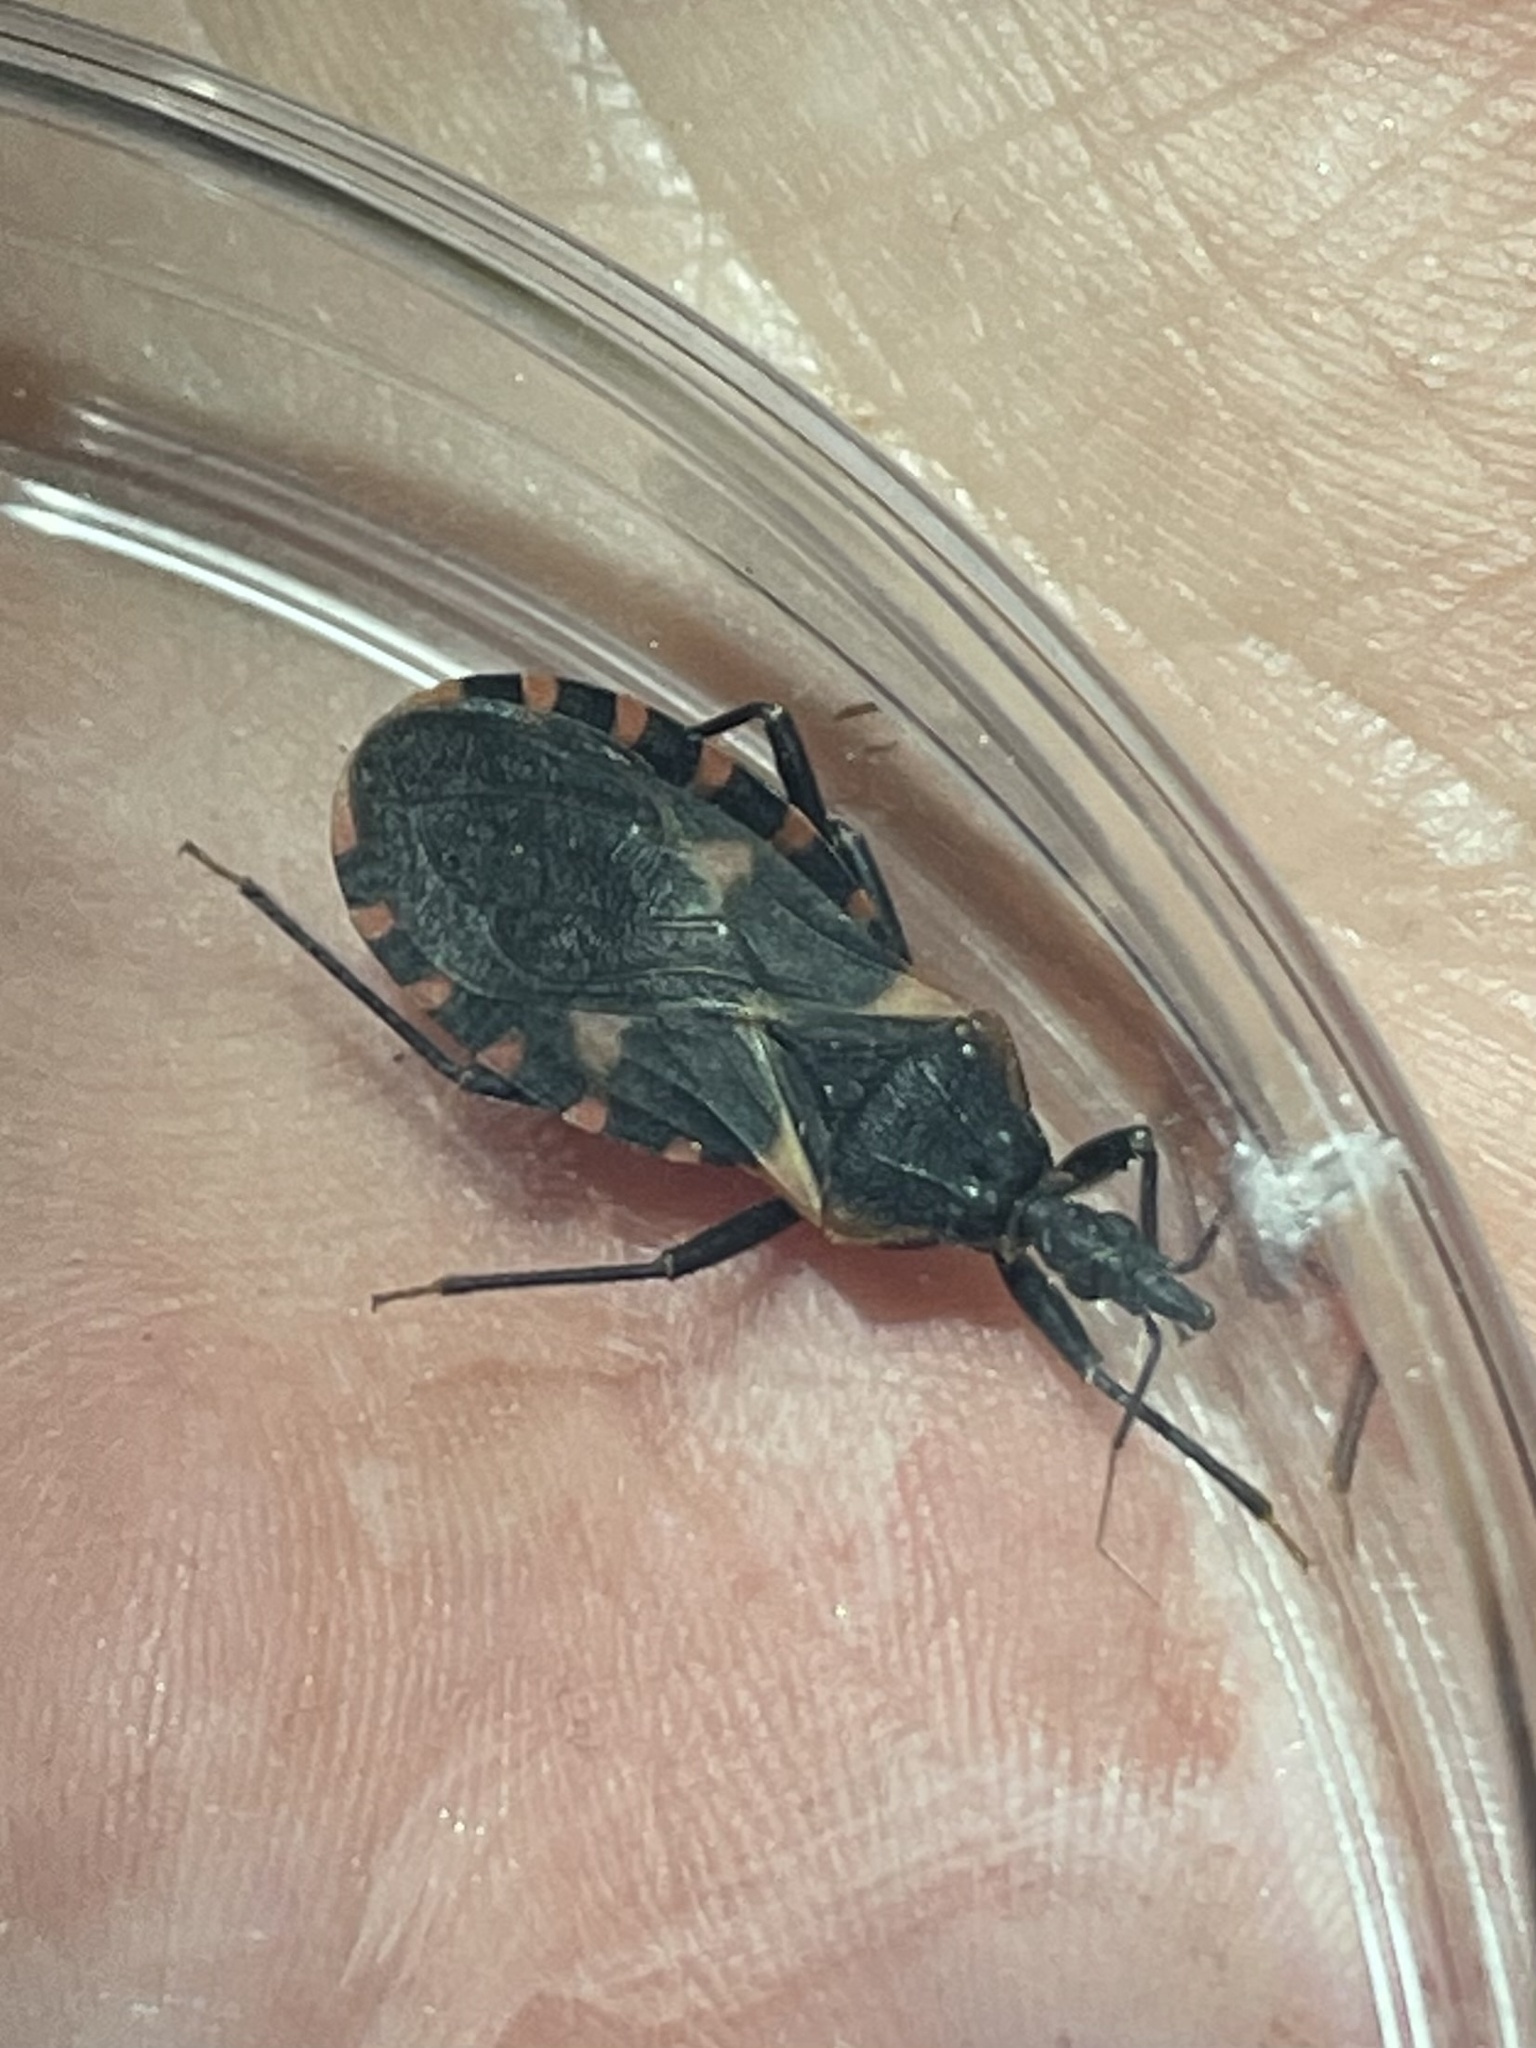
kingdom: Animalia
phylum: Arthropoda
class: Insecta
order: Hemiptera
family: Reduviidae
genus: Triatoma
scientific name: Triatoma sanguisuga
